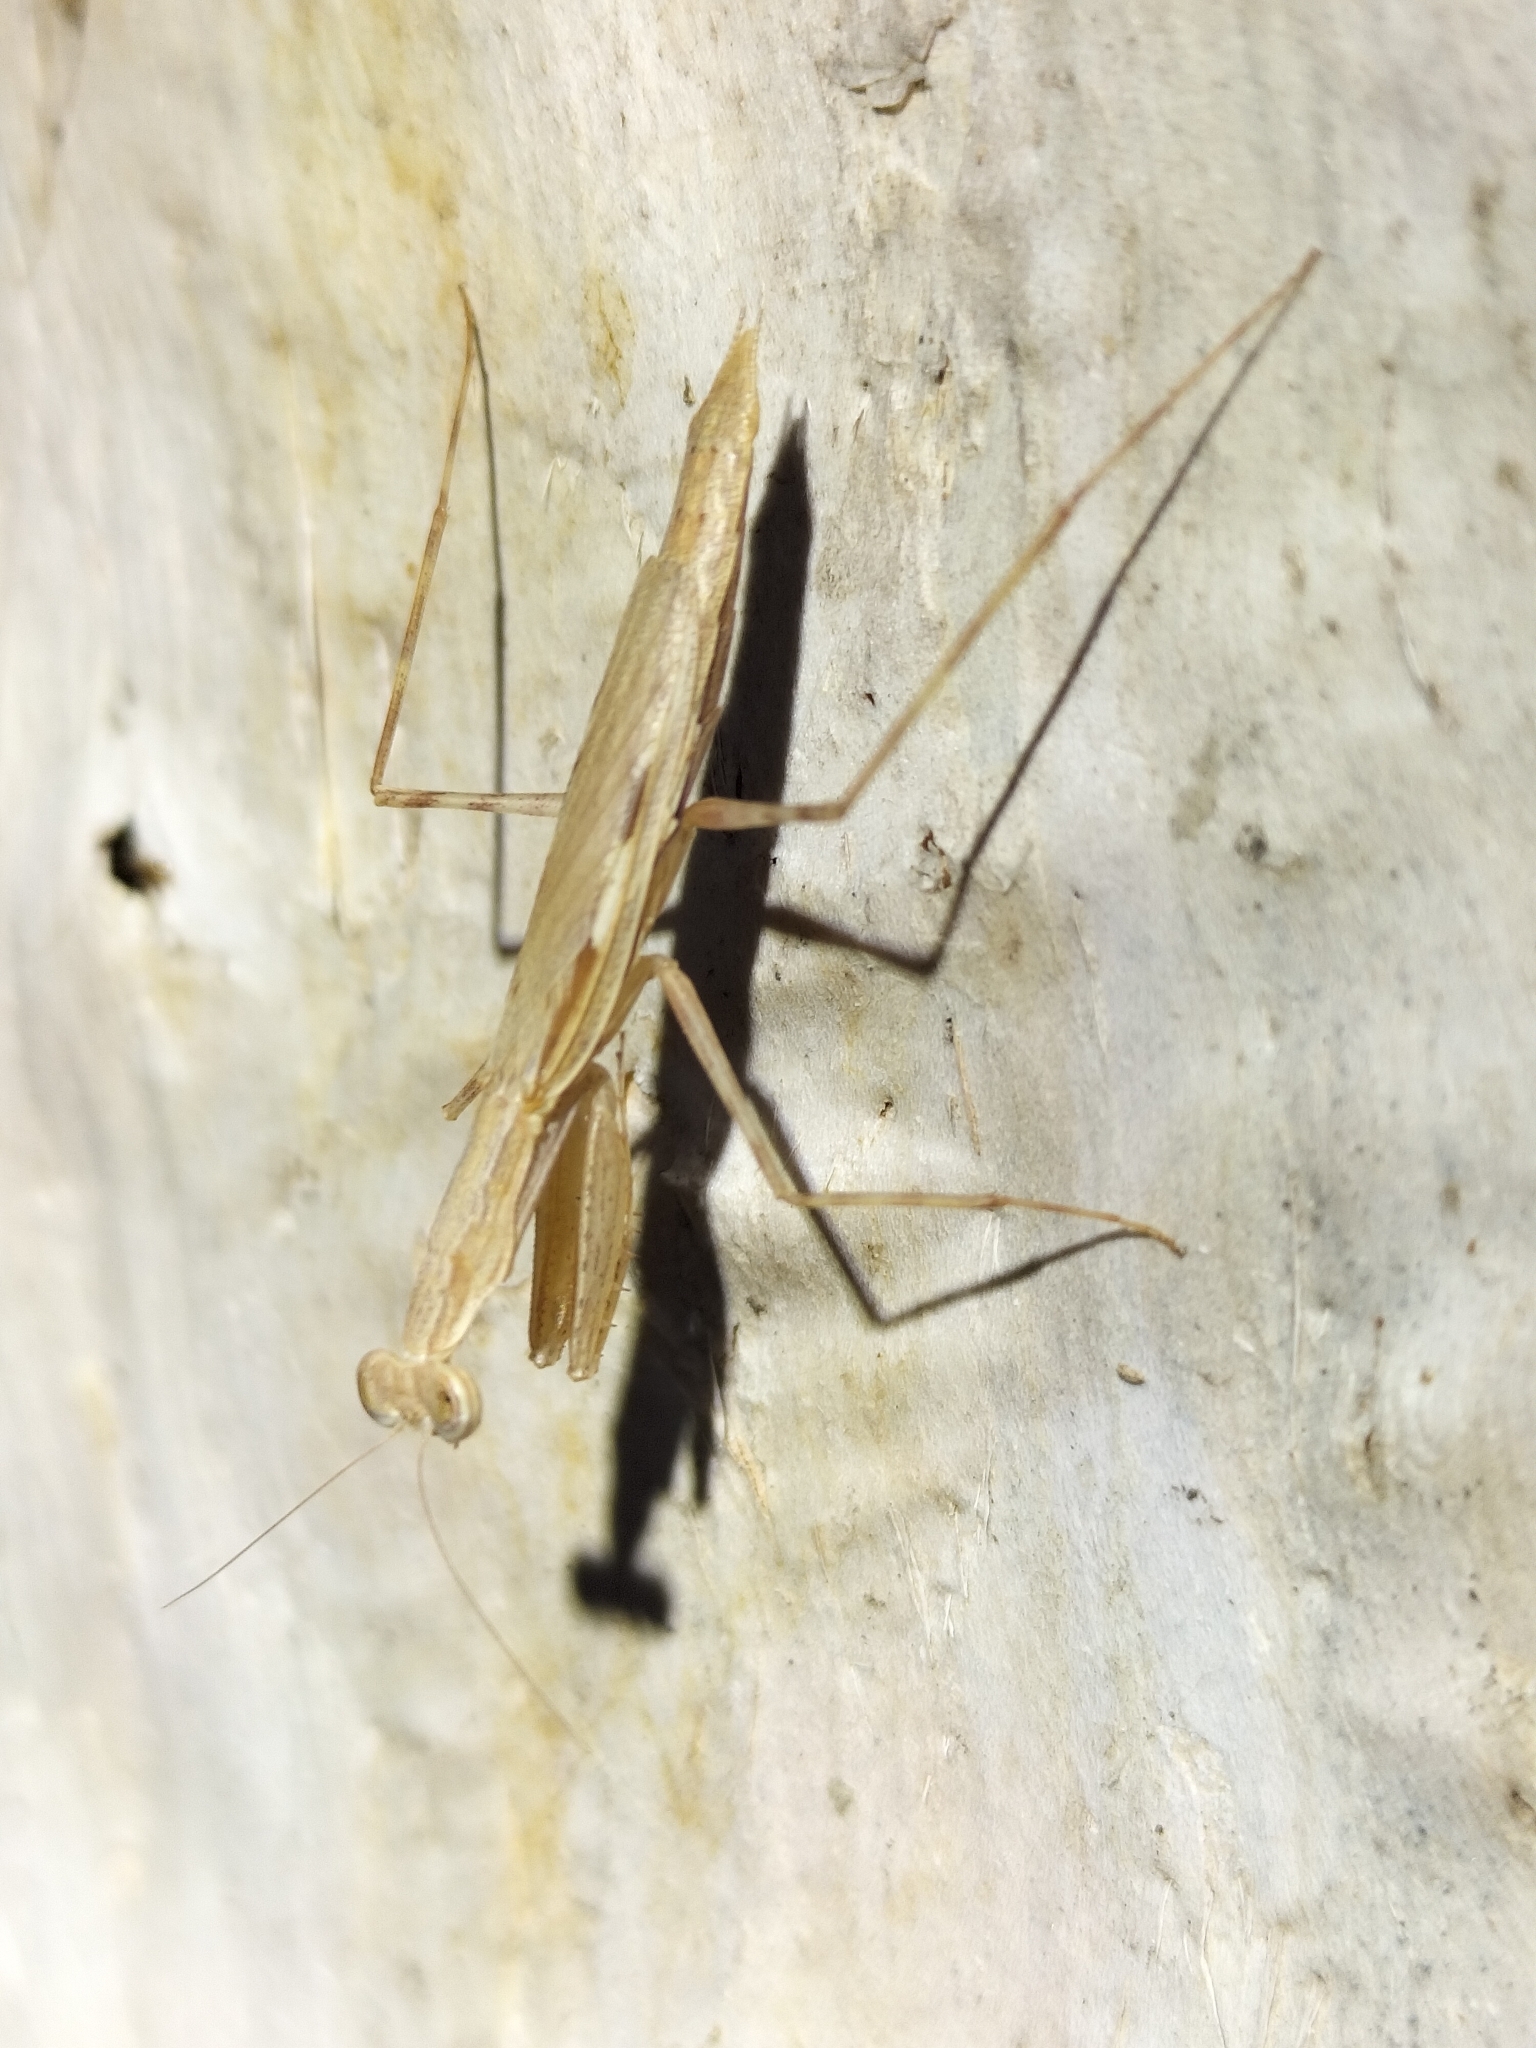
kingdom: Animalia
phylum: Arthropoda
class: Insecta
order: Mantodea
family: Nanomantidae
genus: Ima
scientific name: Ima fusca
